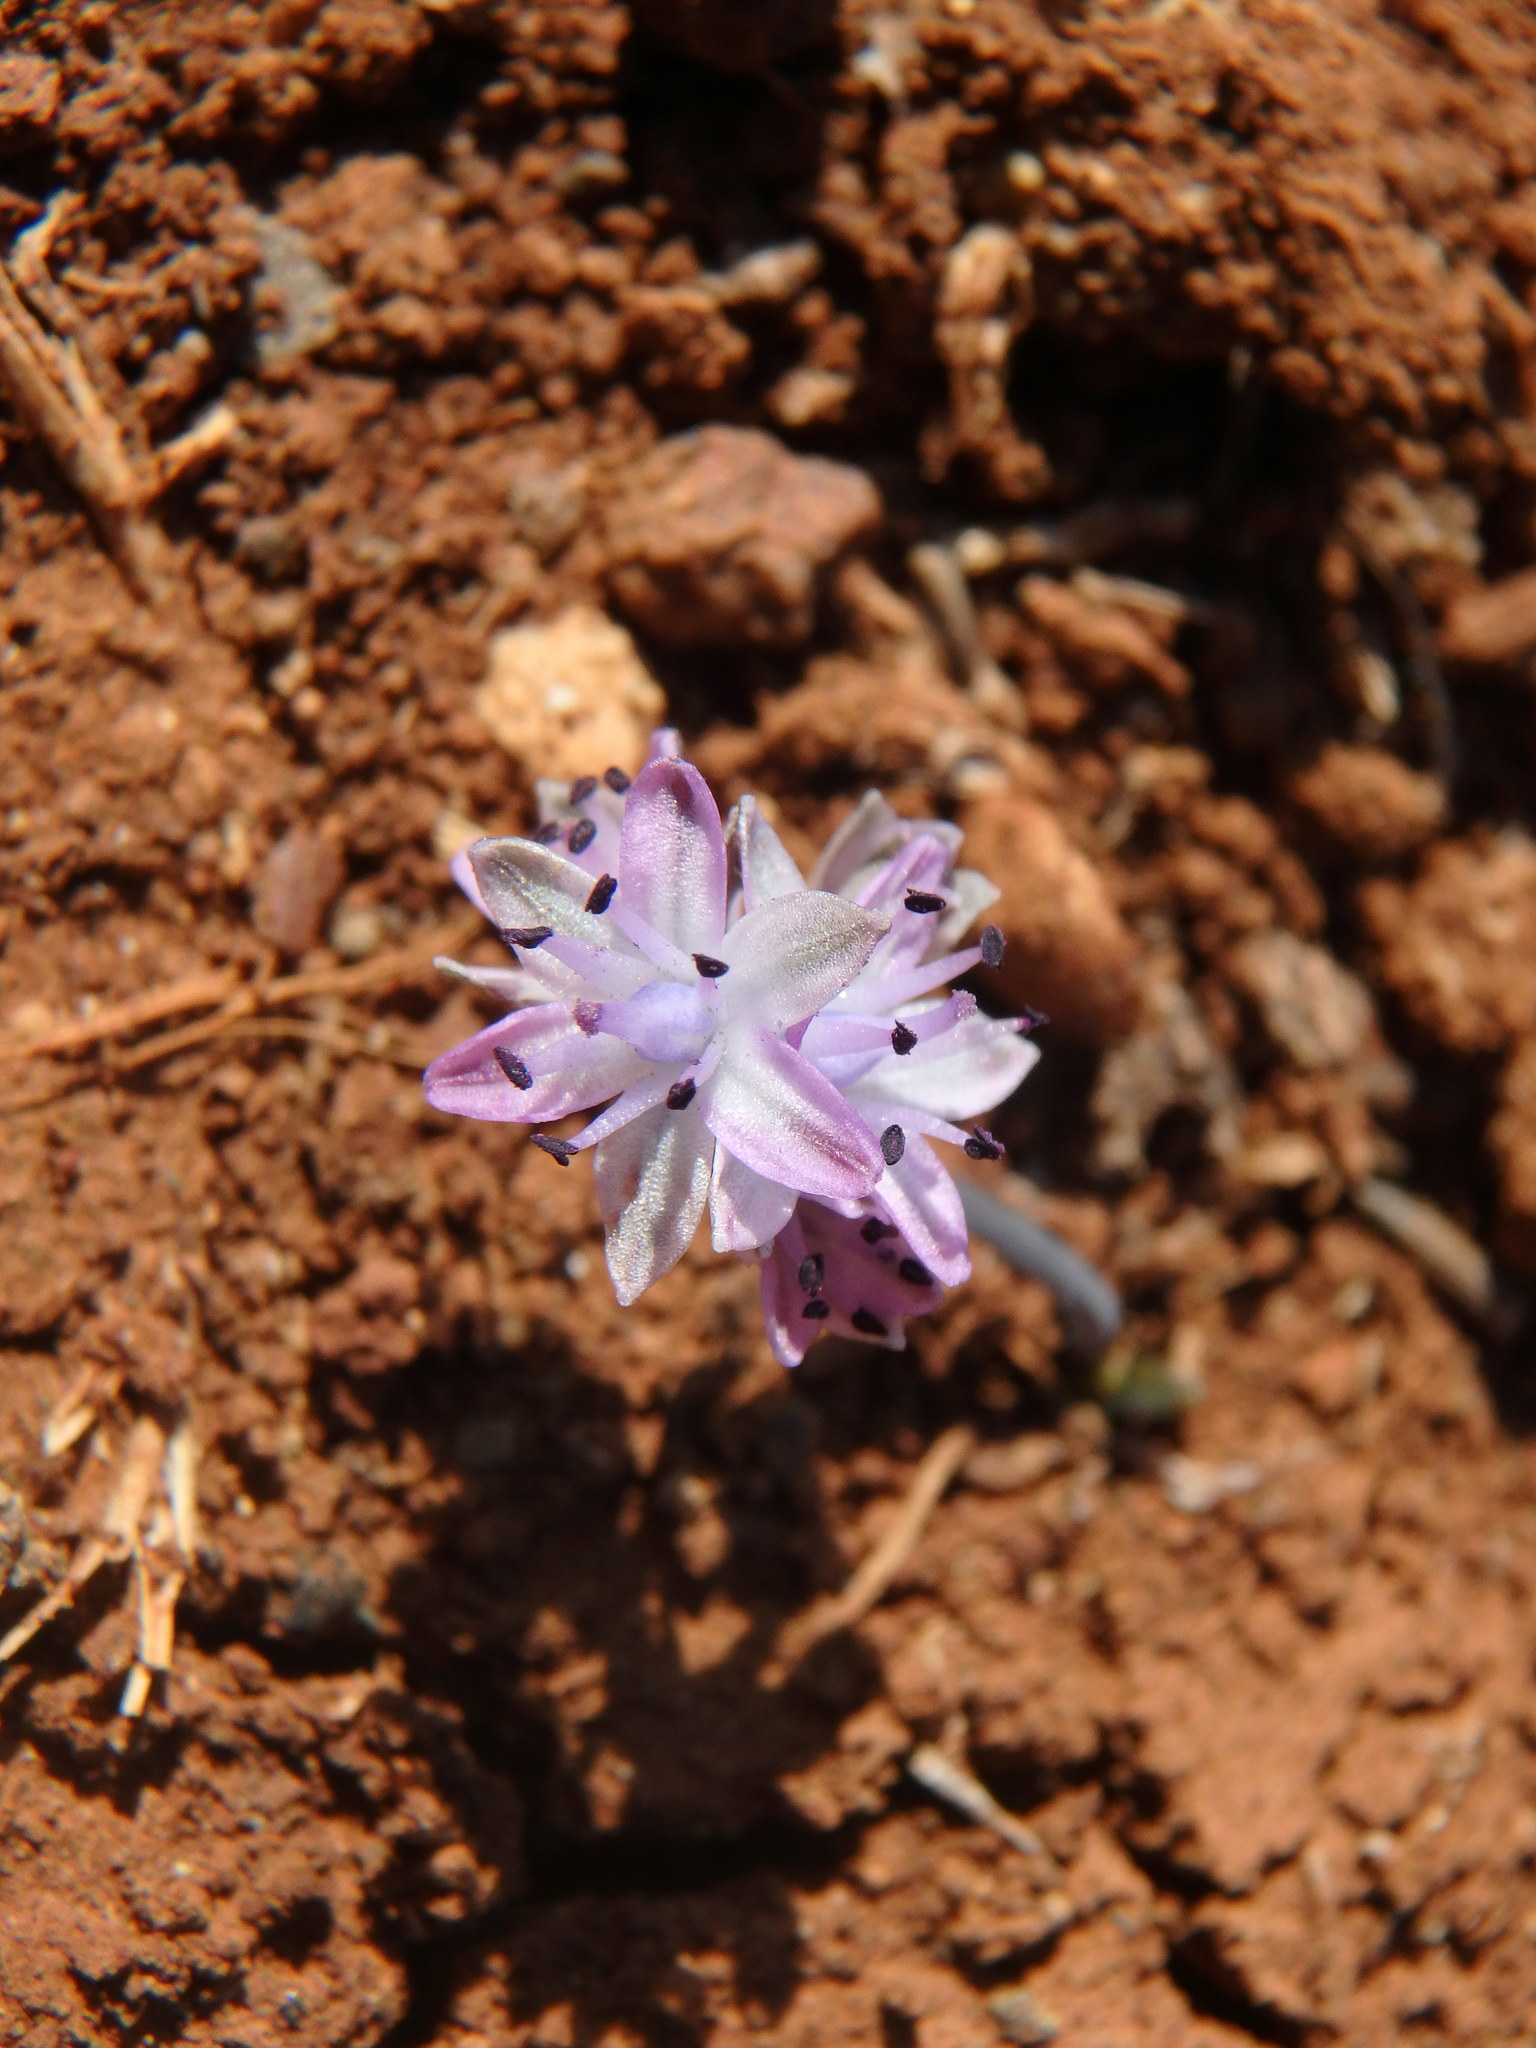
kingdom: Plantae
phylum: Tracheophyta
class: Liliopsida
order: Asparagales
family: Asparagaceae
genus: Prospero
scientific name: Prospero autumnale
